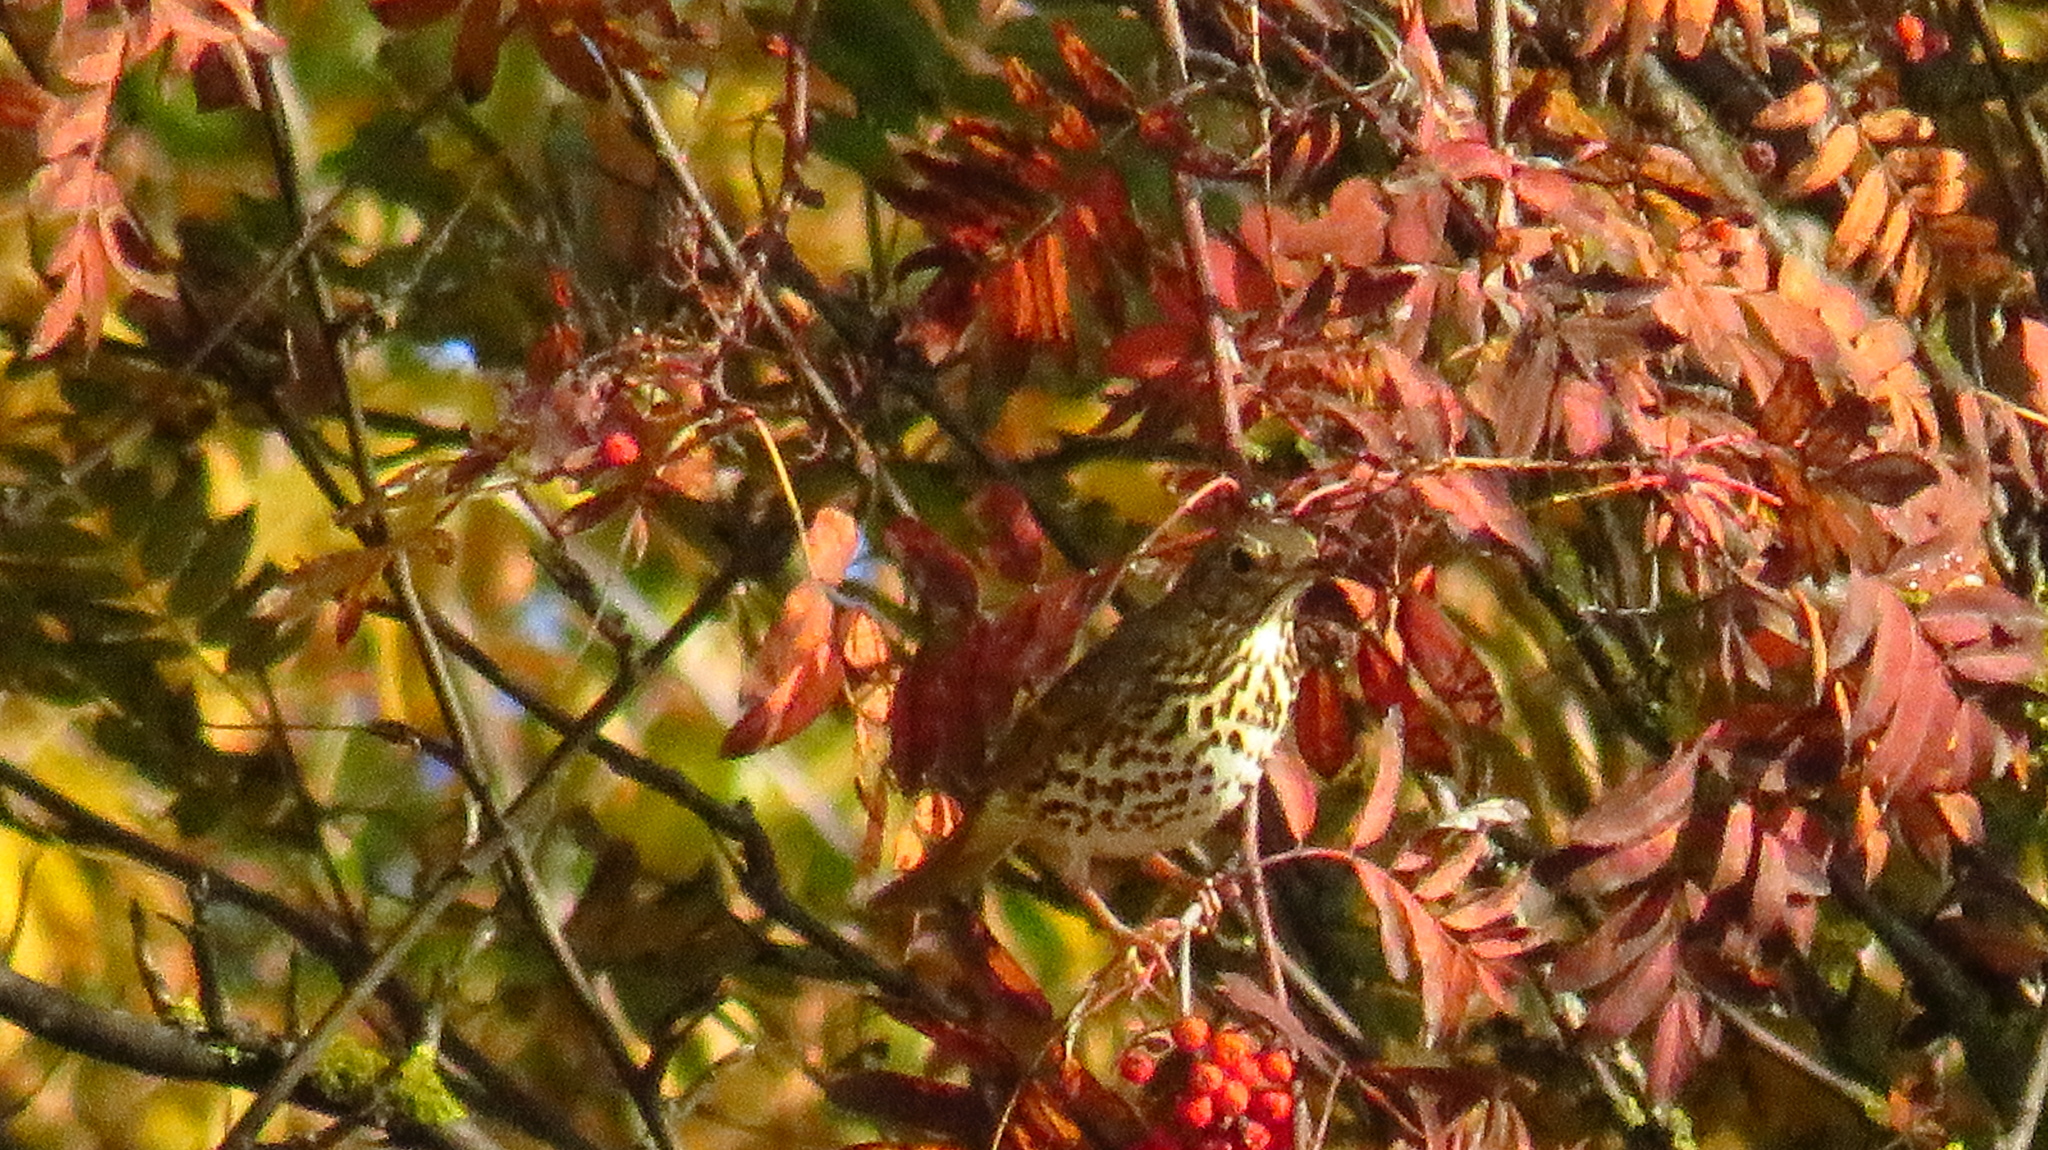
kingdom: Animalia
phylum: Chordata
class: Aves
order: Passeriformes
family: Turdidae
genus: Turdus
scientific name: Turdus philomelos
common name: Song thrush
